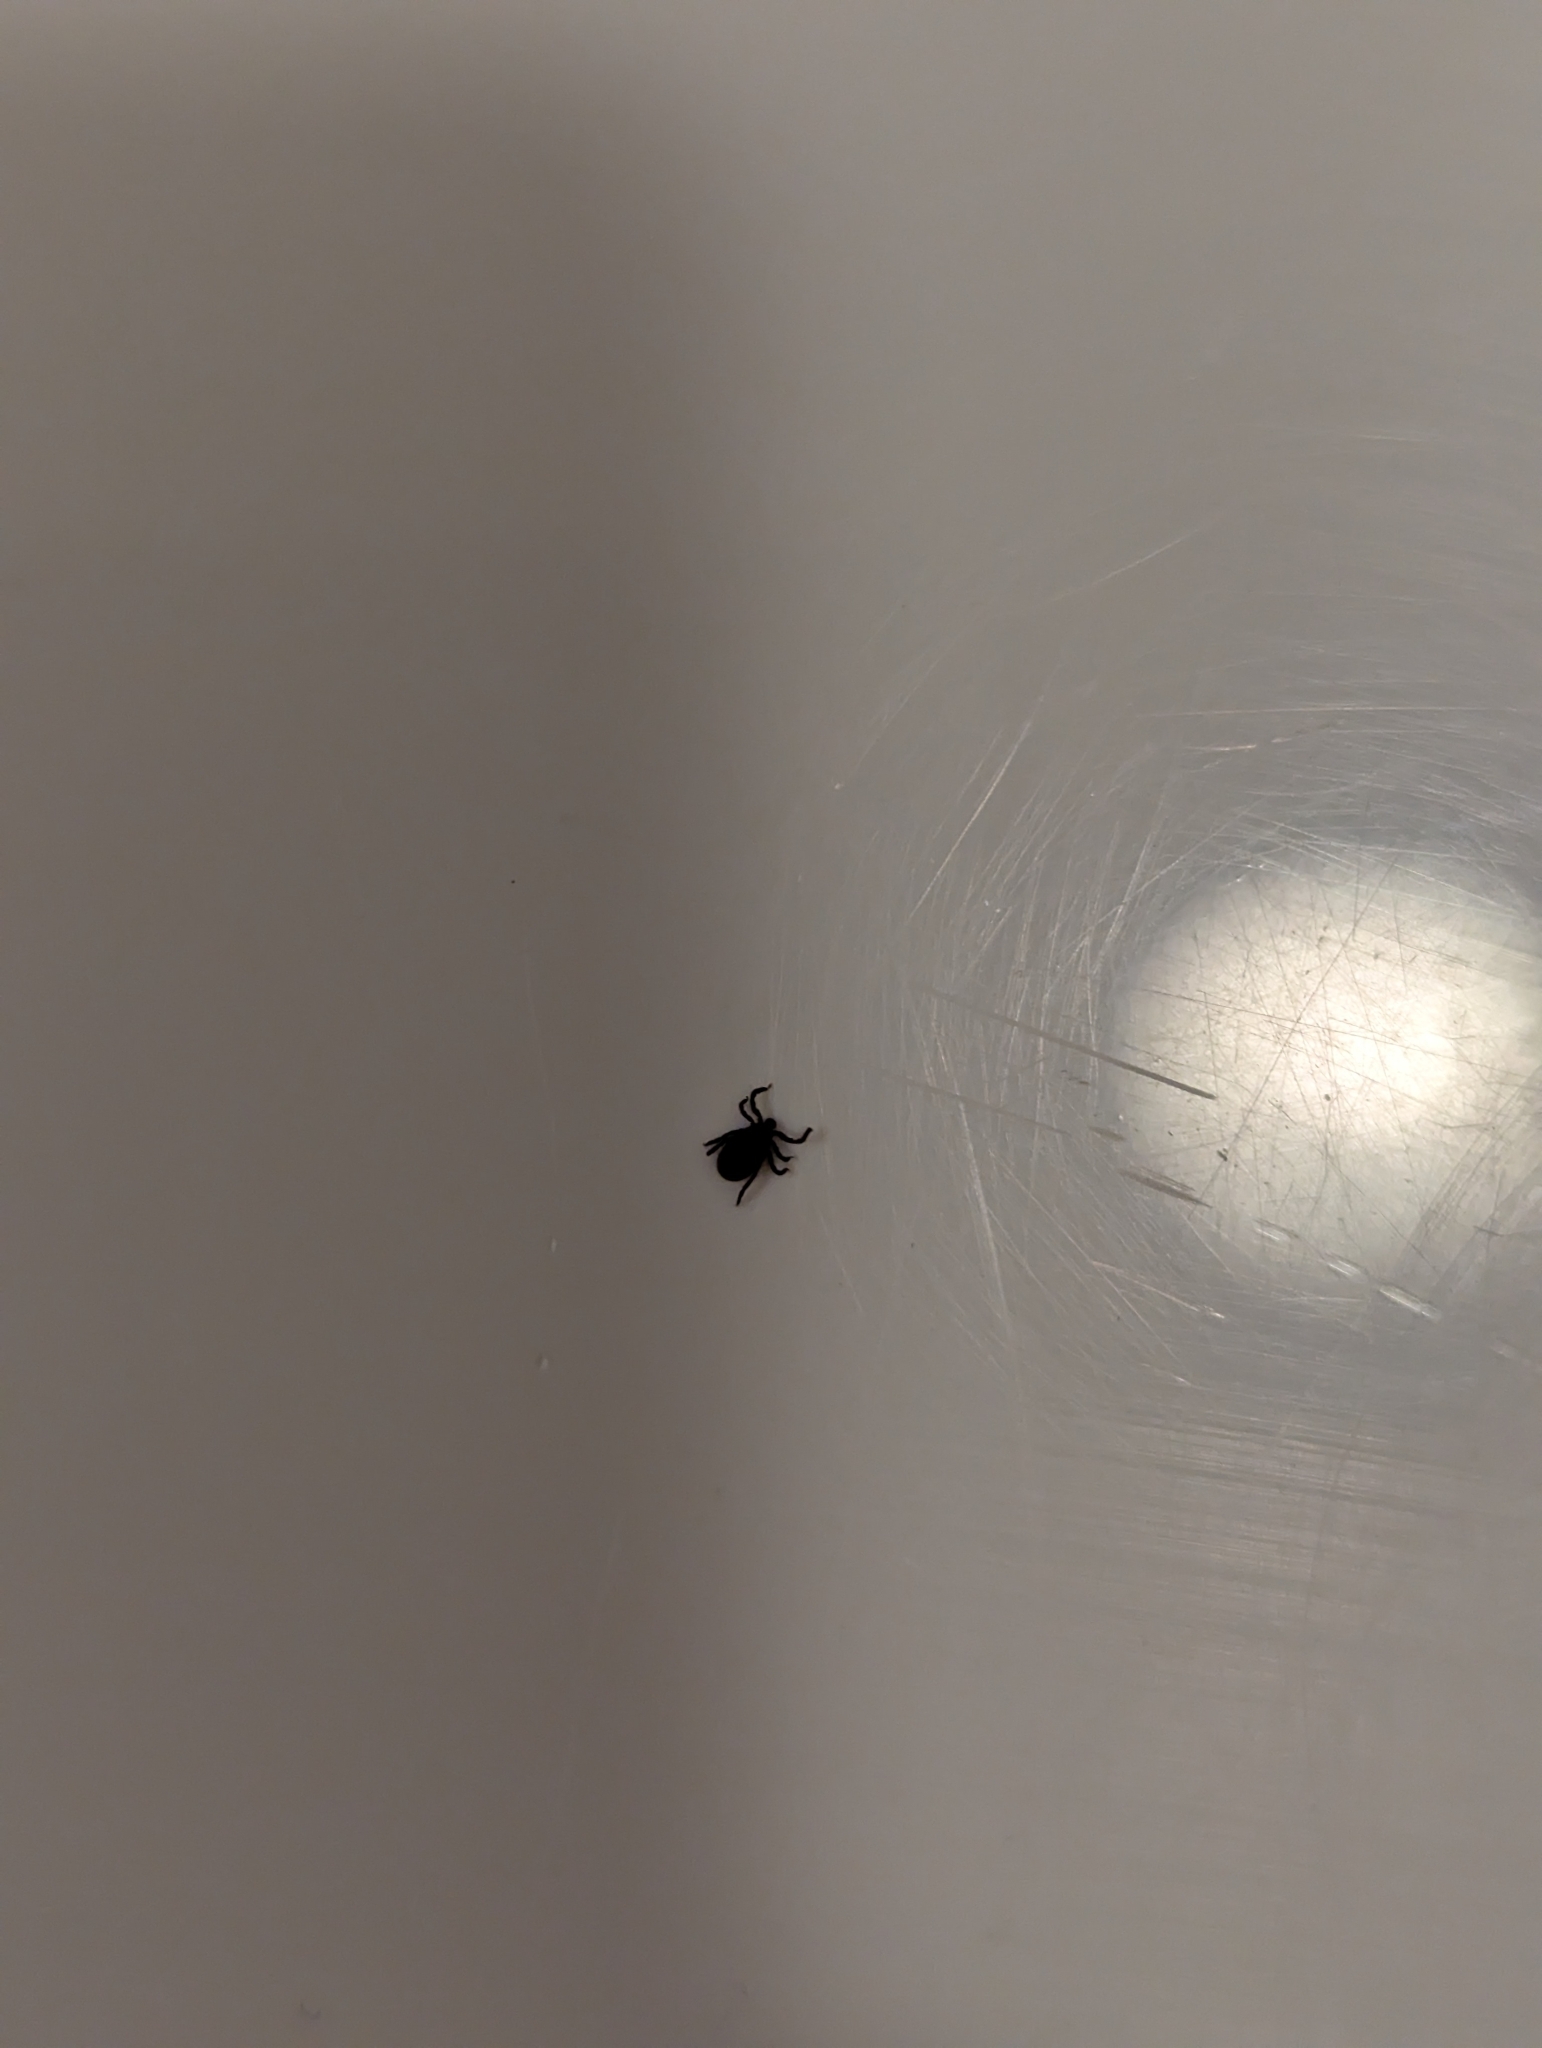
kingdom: Animalia
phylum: Arthropoda
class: Arachnida
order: Ixodida
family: Ixodidae
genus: Ixodes
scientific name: Ixodes scapularis
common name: Black legged tick
